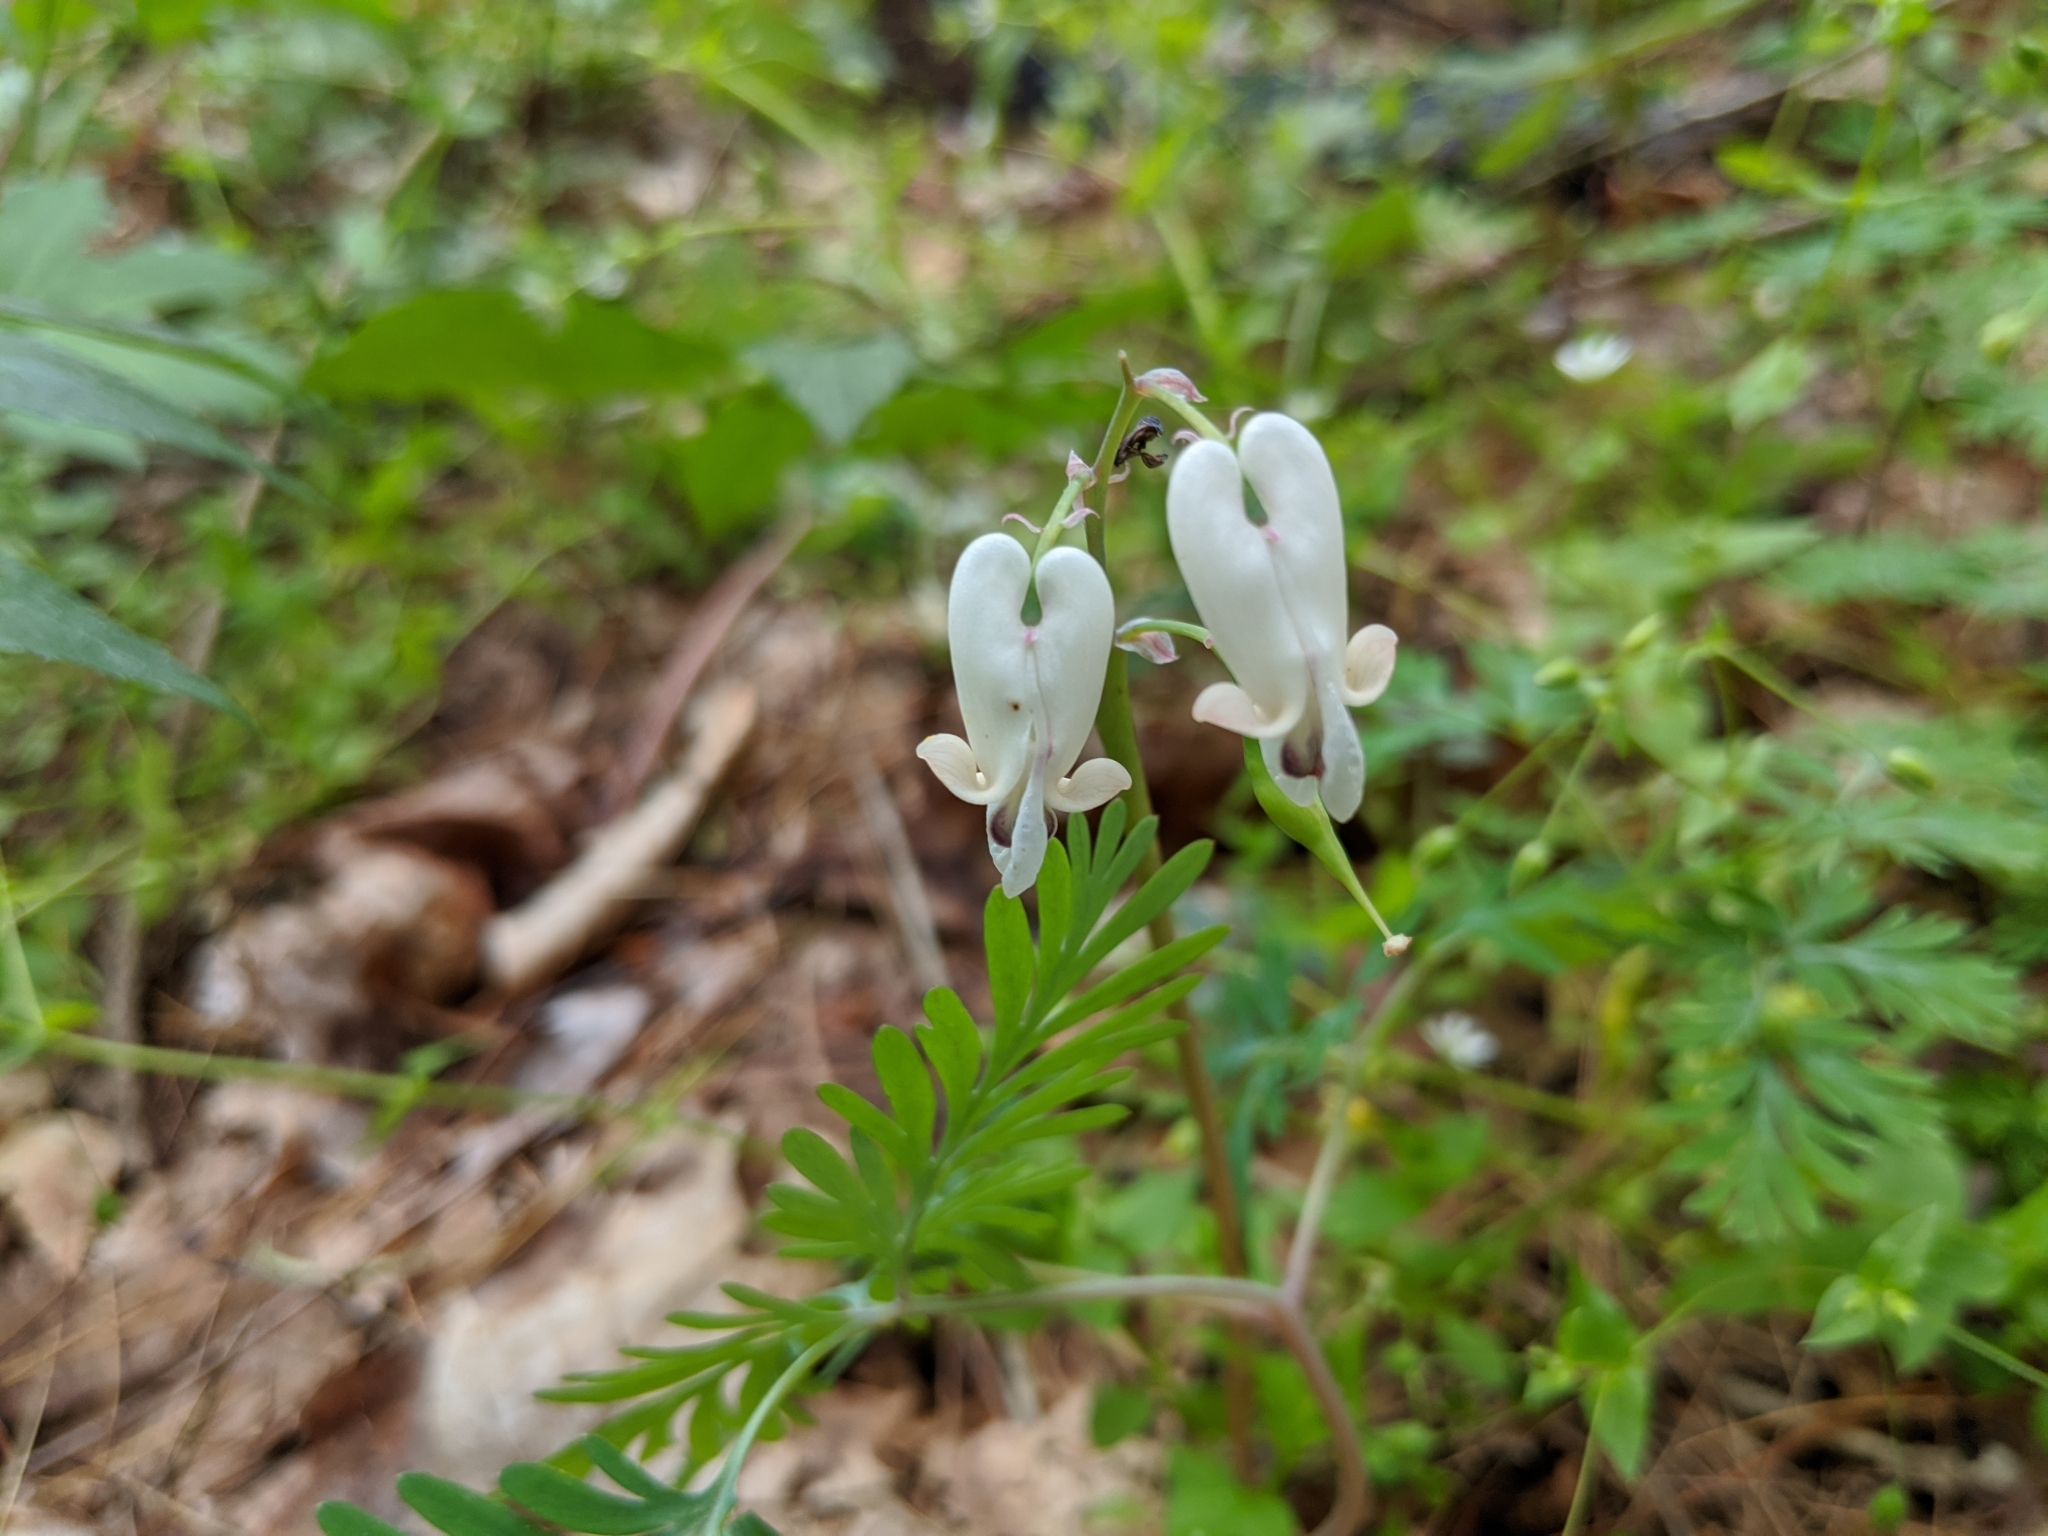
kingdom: Plantae
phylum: Tracheophyta
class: Magnoliopsida
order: Ranunculales
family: Papaveraceae
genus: Dicentra
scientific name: Dicentra canadensis
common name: Squirrel-corn
